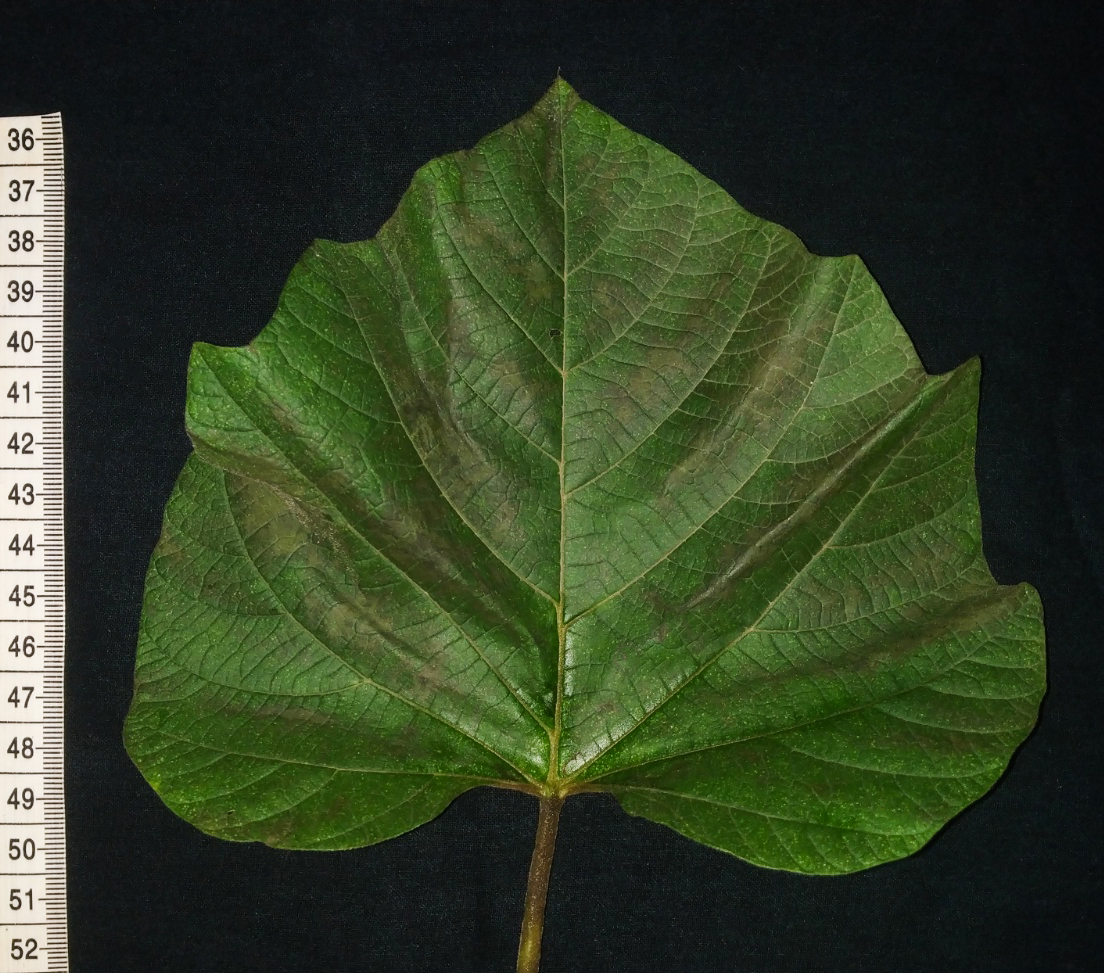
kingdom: Plantae
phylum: Tracheophyta
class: Magnoliopsida
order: Solanales
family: Convolvulaceae
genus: Operculina
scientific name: Operculina ventricosa
